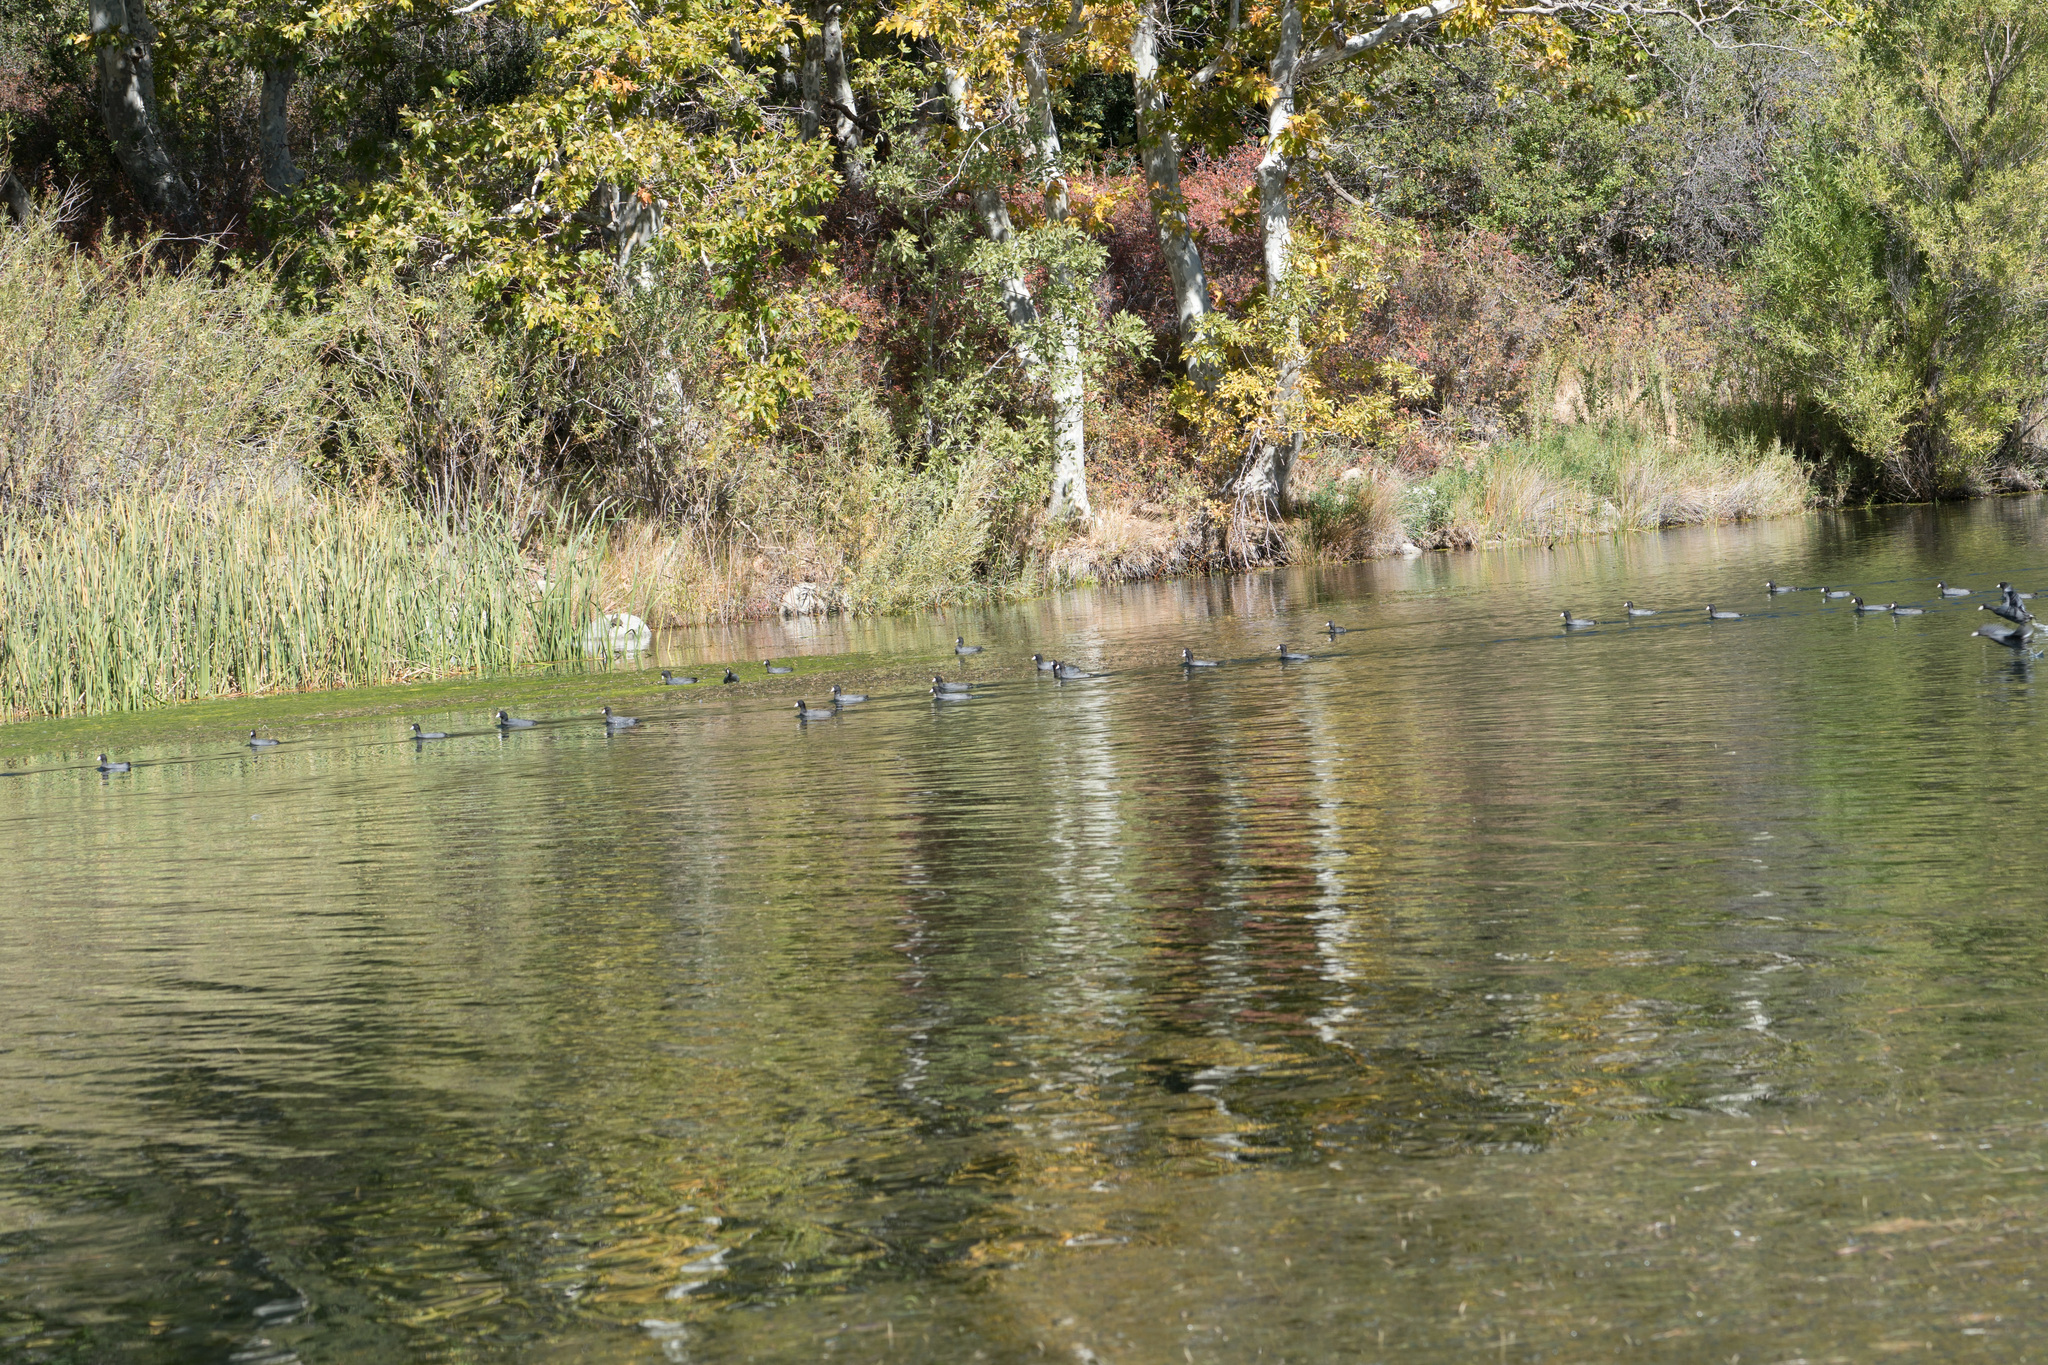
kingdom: Animalia
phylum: Chordata
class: Aves
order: Gruiformes
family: Rallidae
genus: Fulica
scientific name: Fulica americana
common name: American coot
